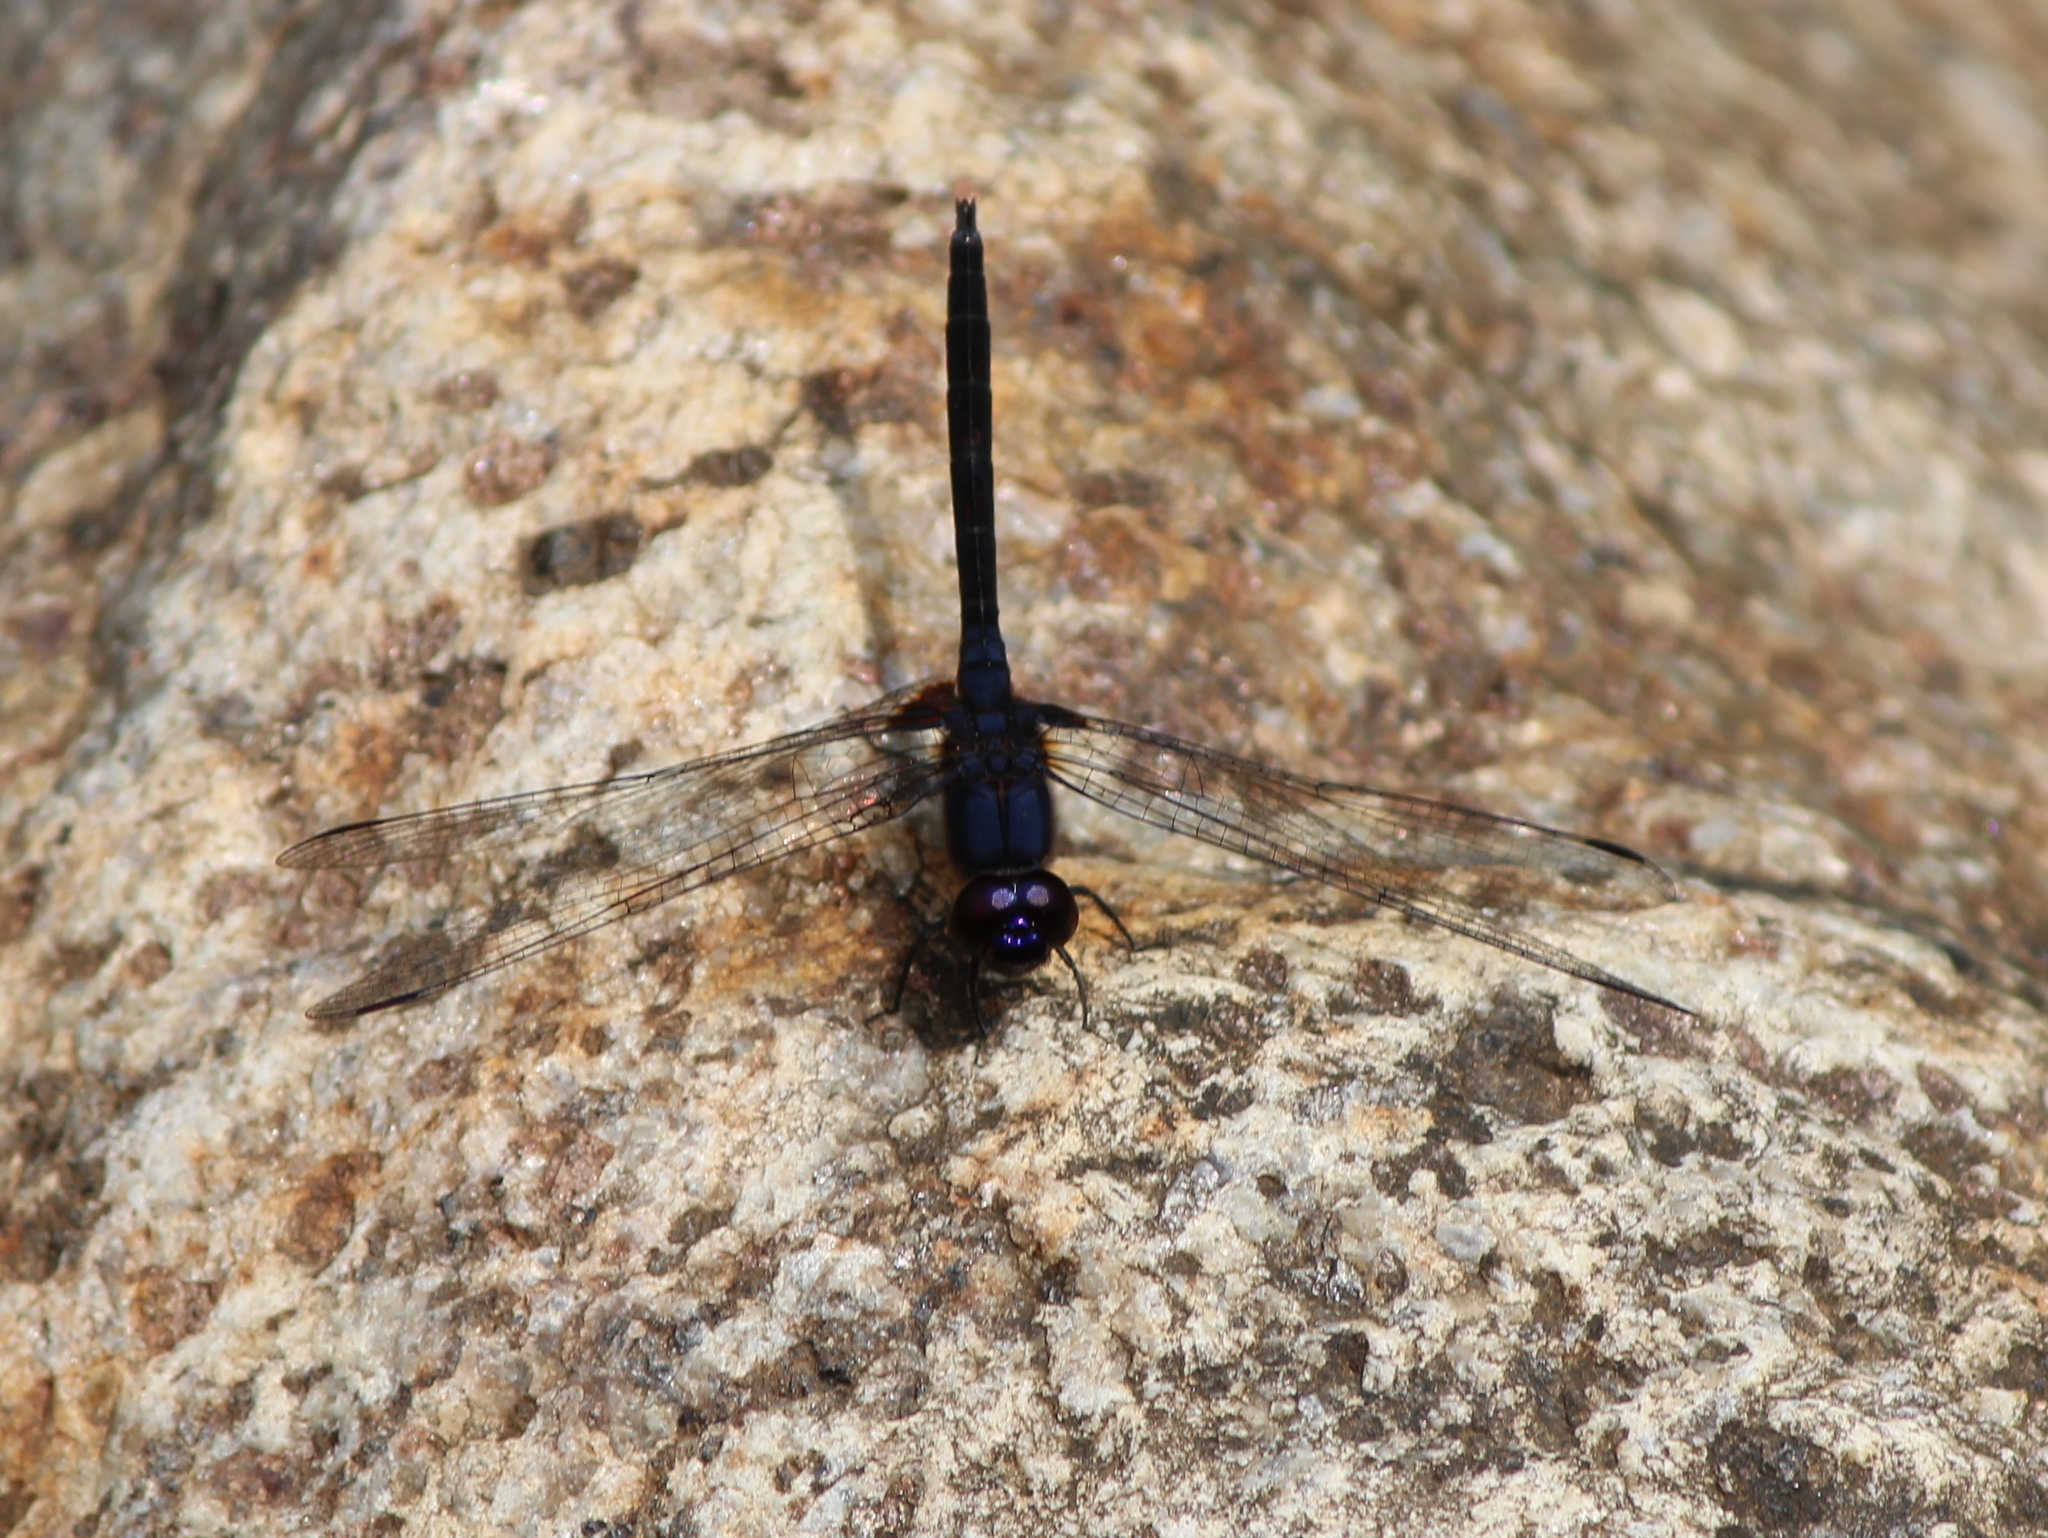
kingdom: Animalia
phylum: Arthropoda
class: Insecta
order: Odonata
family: Libellulidae
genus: Trithemis
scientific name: Trithemis festiva
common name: Indigo dropwing
